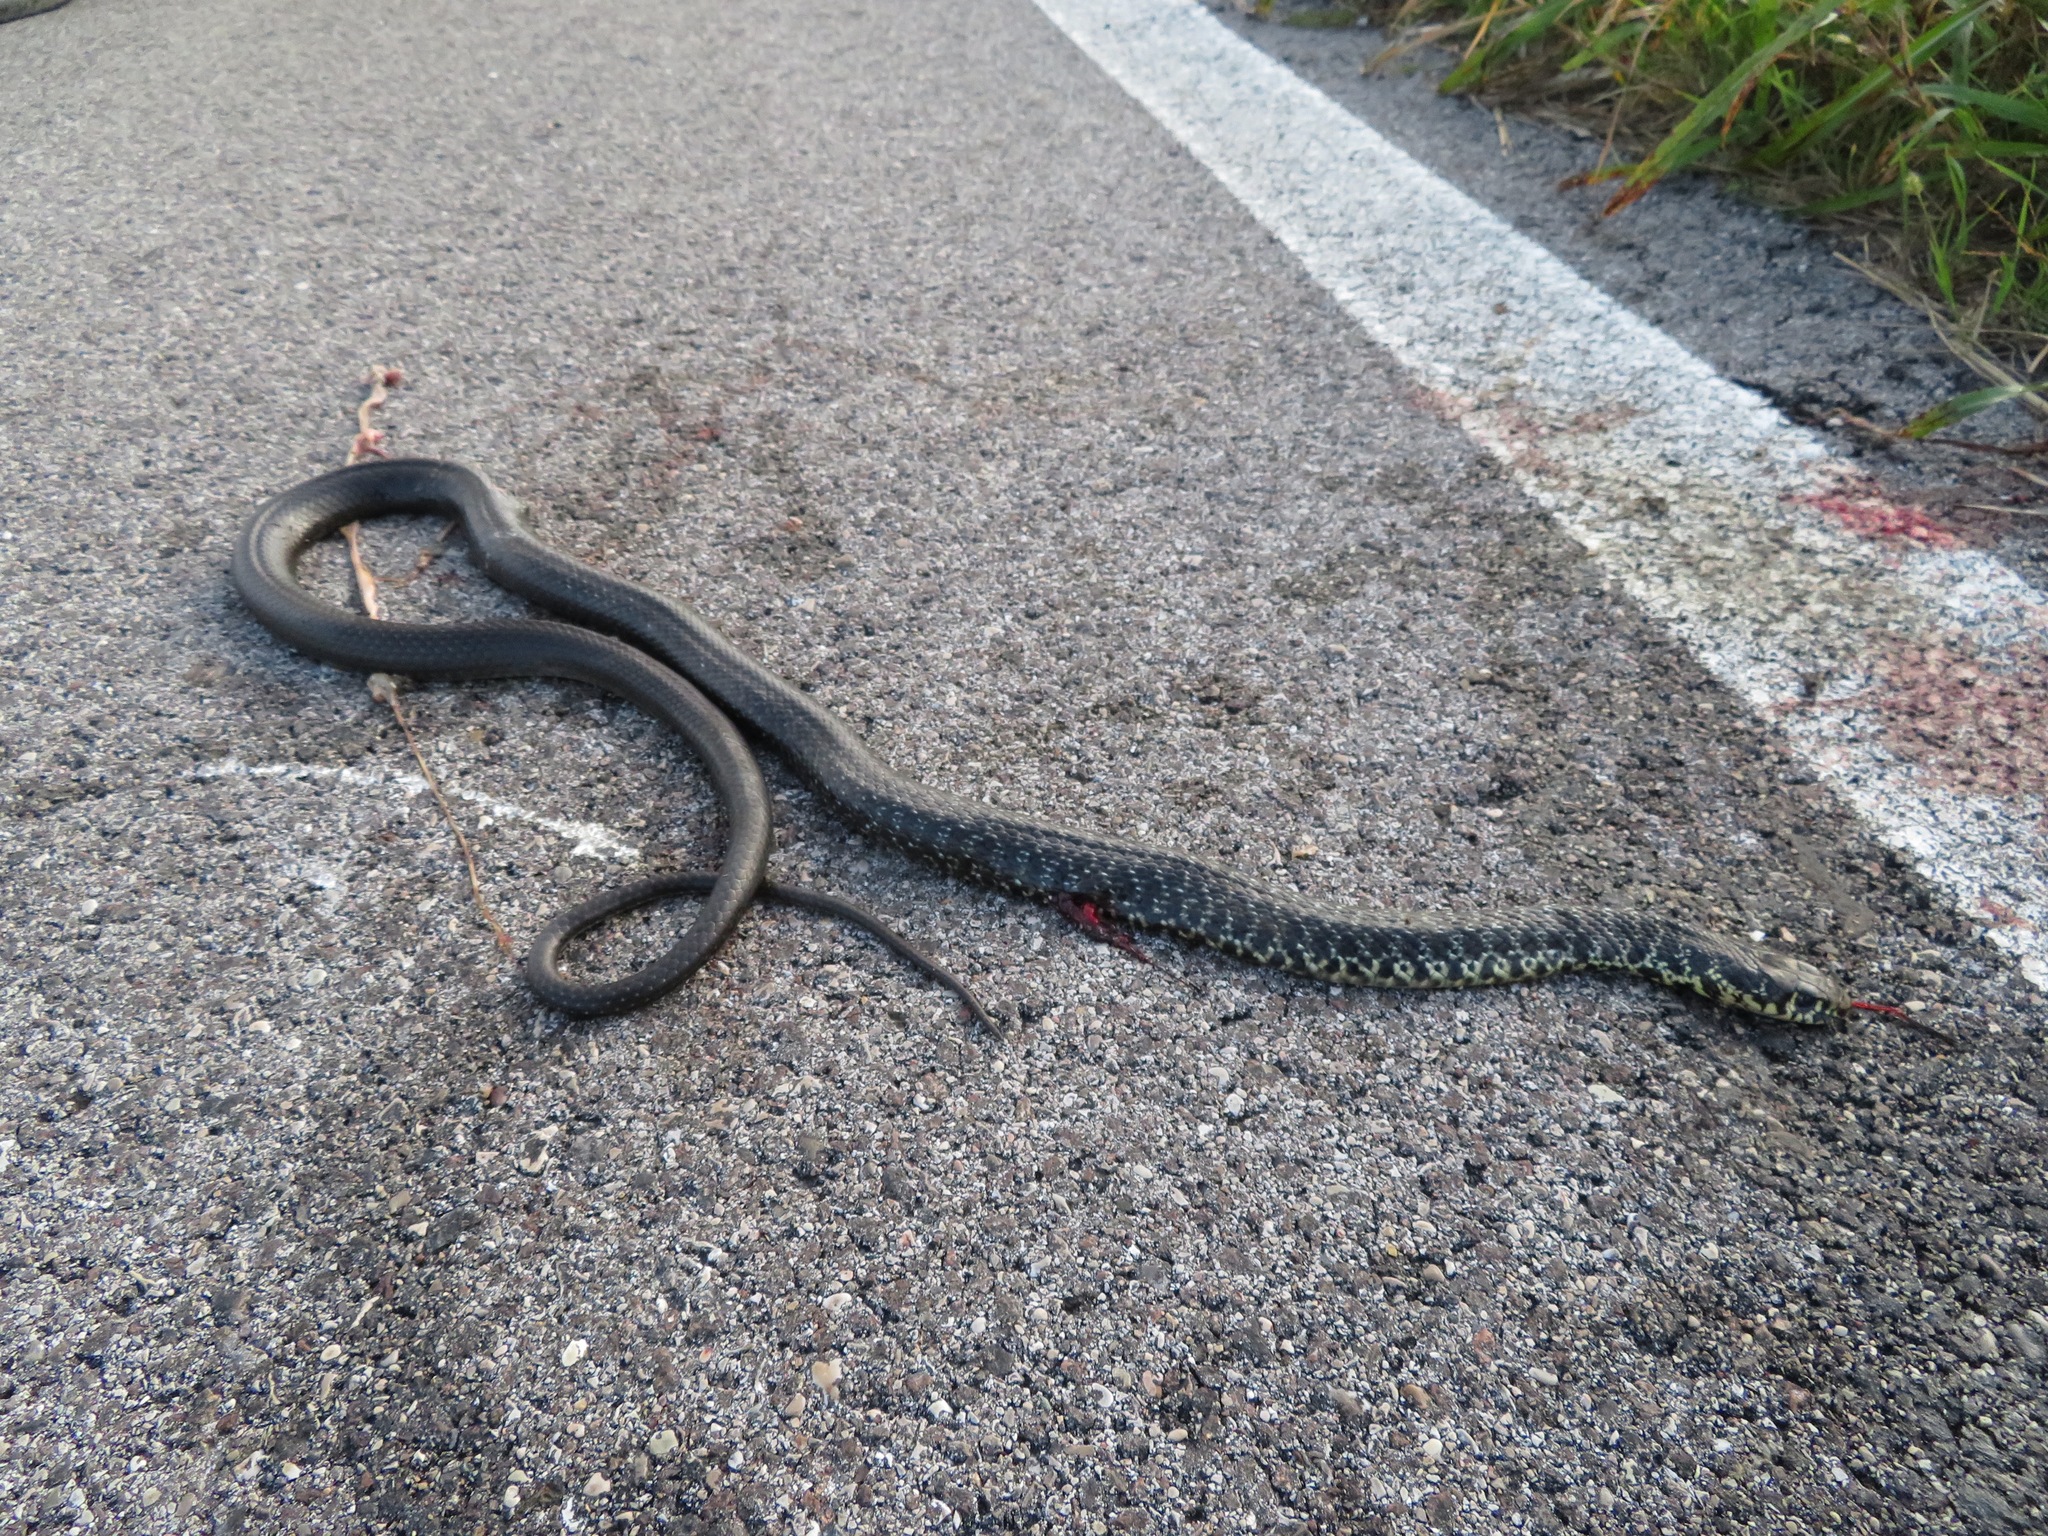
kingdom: Animalia
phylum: Chordata
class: Squamata
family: Colubridae
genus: Hierophis
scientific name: Hierophis viridiflavus
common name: Green whip snake
